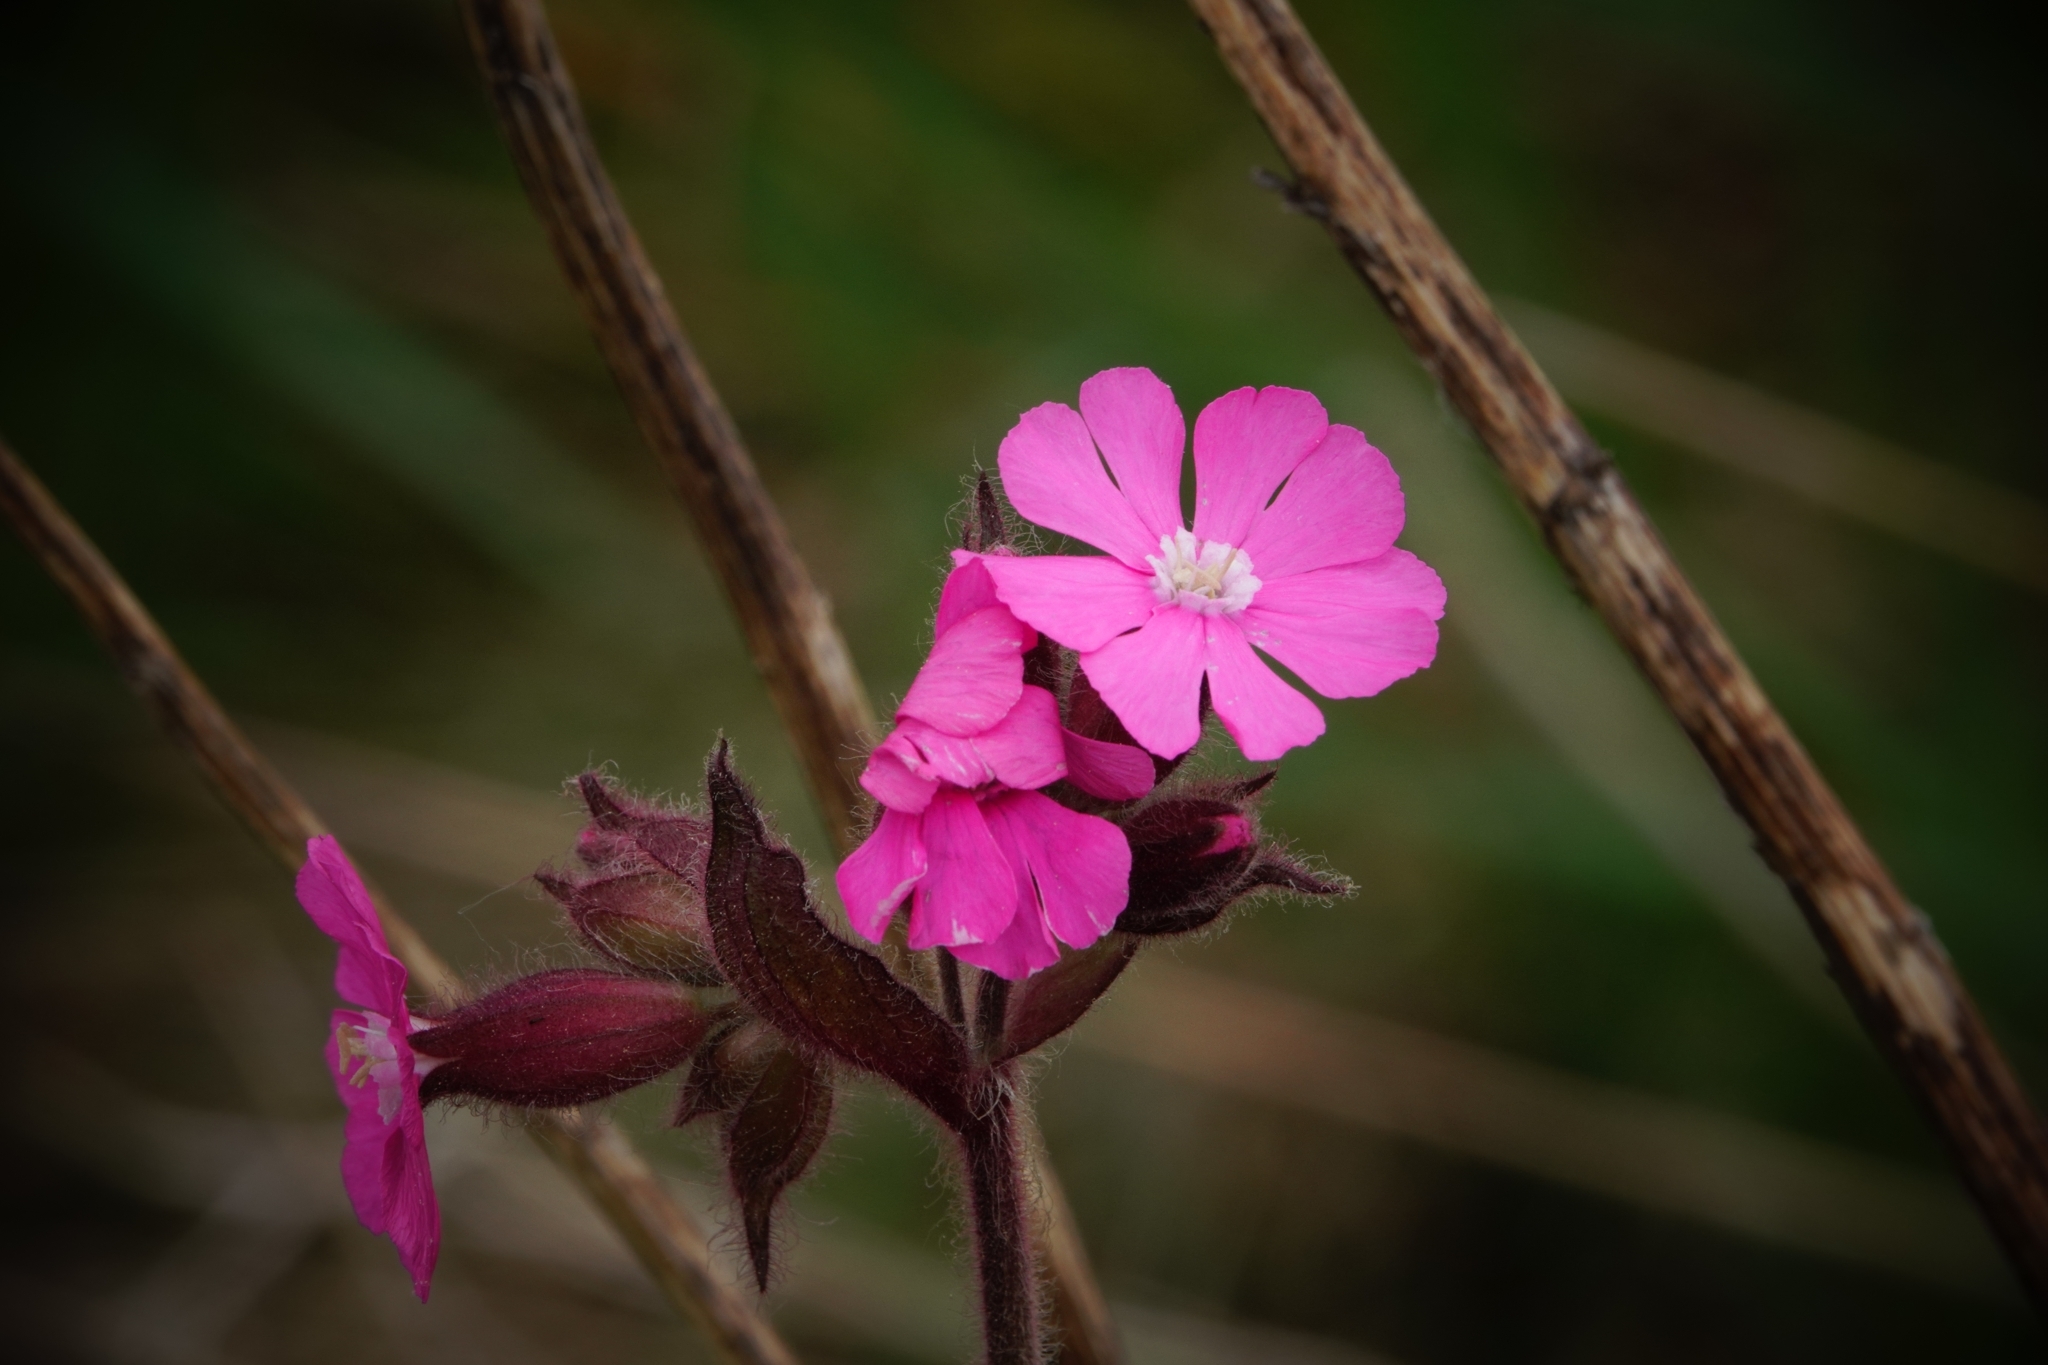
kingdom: Plantae
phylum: Tracheophyta
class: Magnoliopsida
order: Caryophyllales
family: Caryophyllaceae
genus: Silene
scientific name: Silene dioica
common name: Red campion
